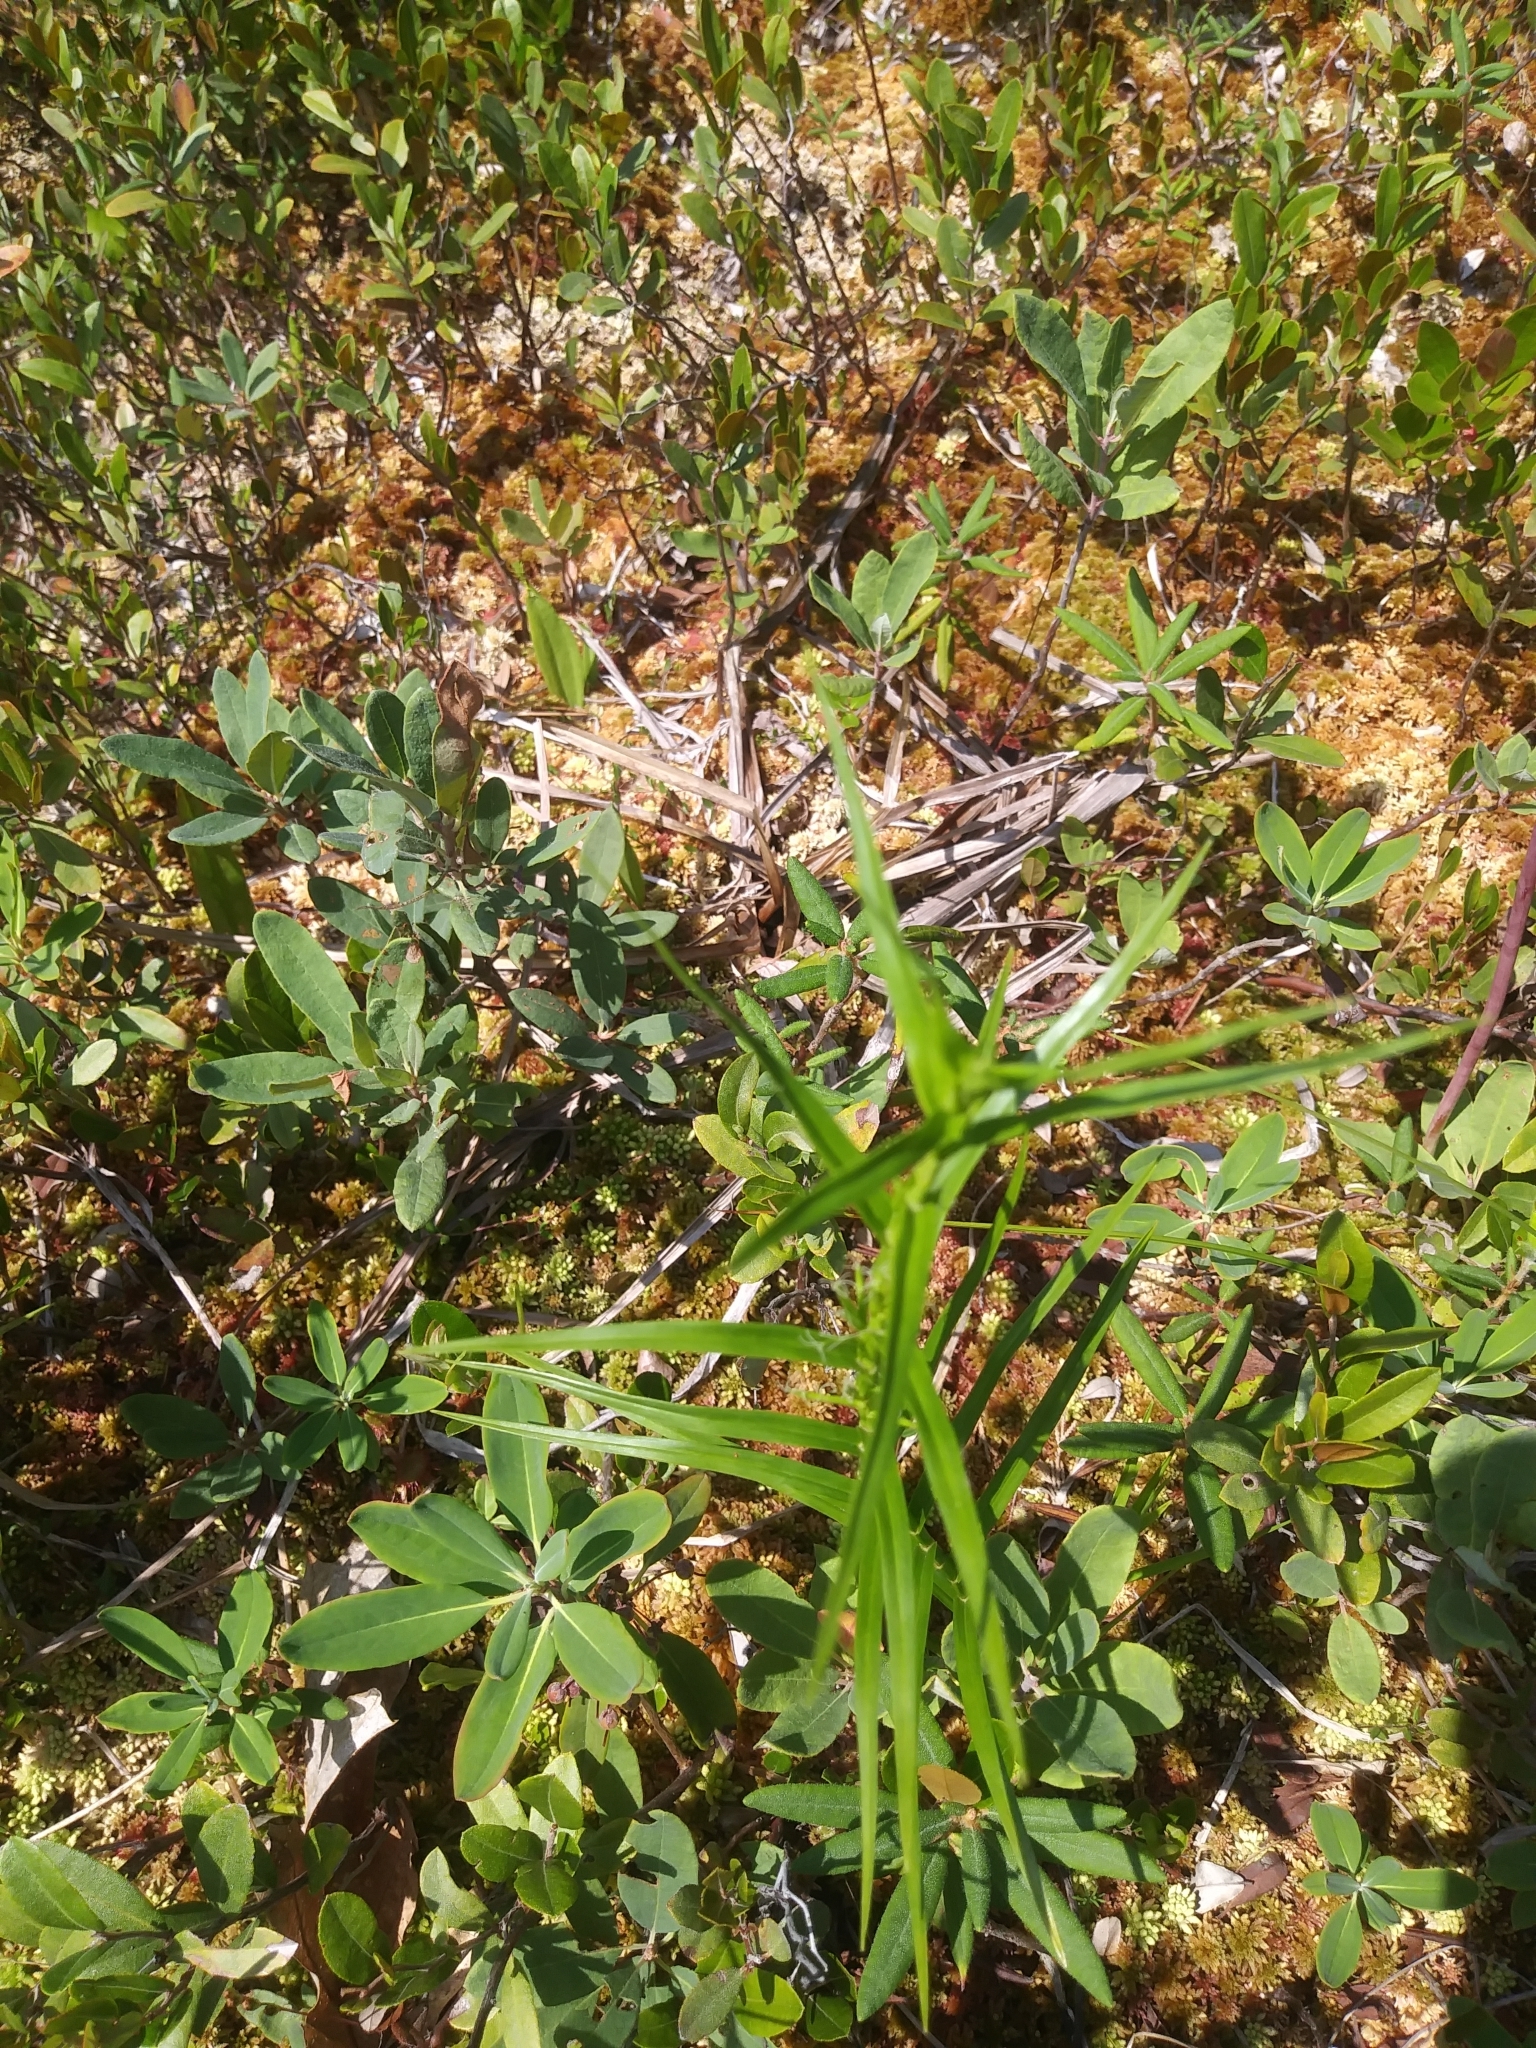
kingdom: Plantae
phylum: Tracheophyta
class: Liliopsida
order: Poales
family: Cyperaceae
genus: Dulichium
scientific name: Dulichium arundinaceum
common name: Three-way sedge
